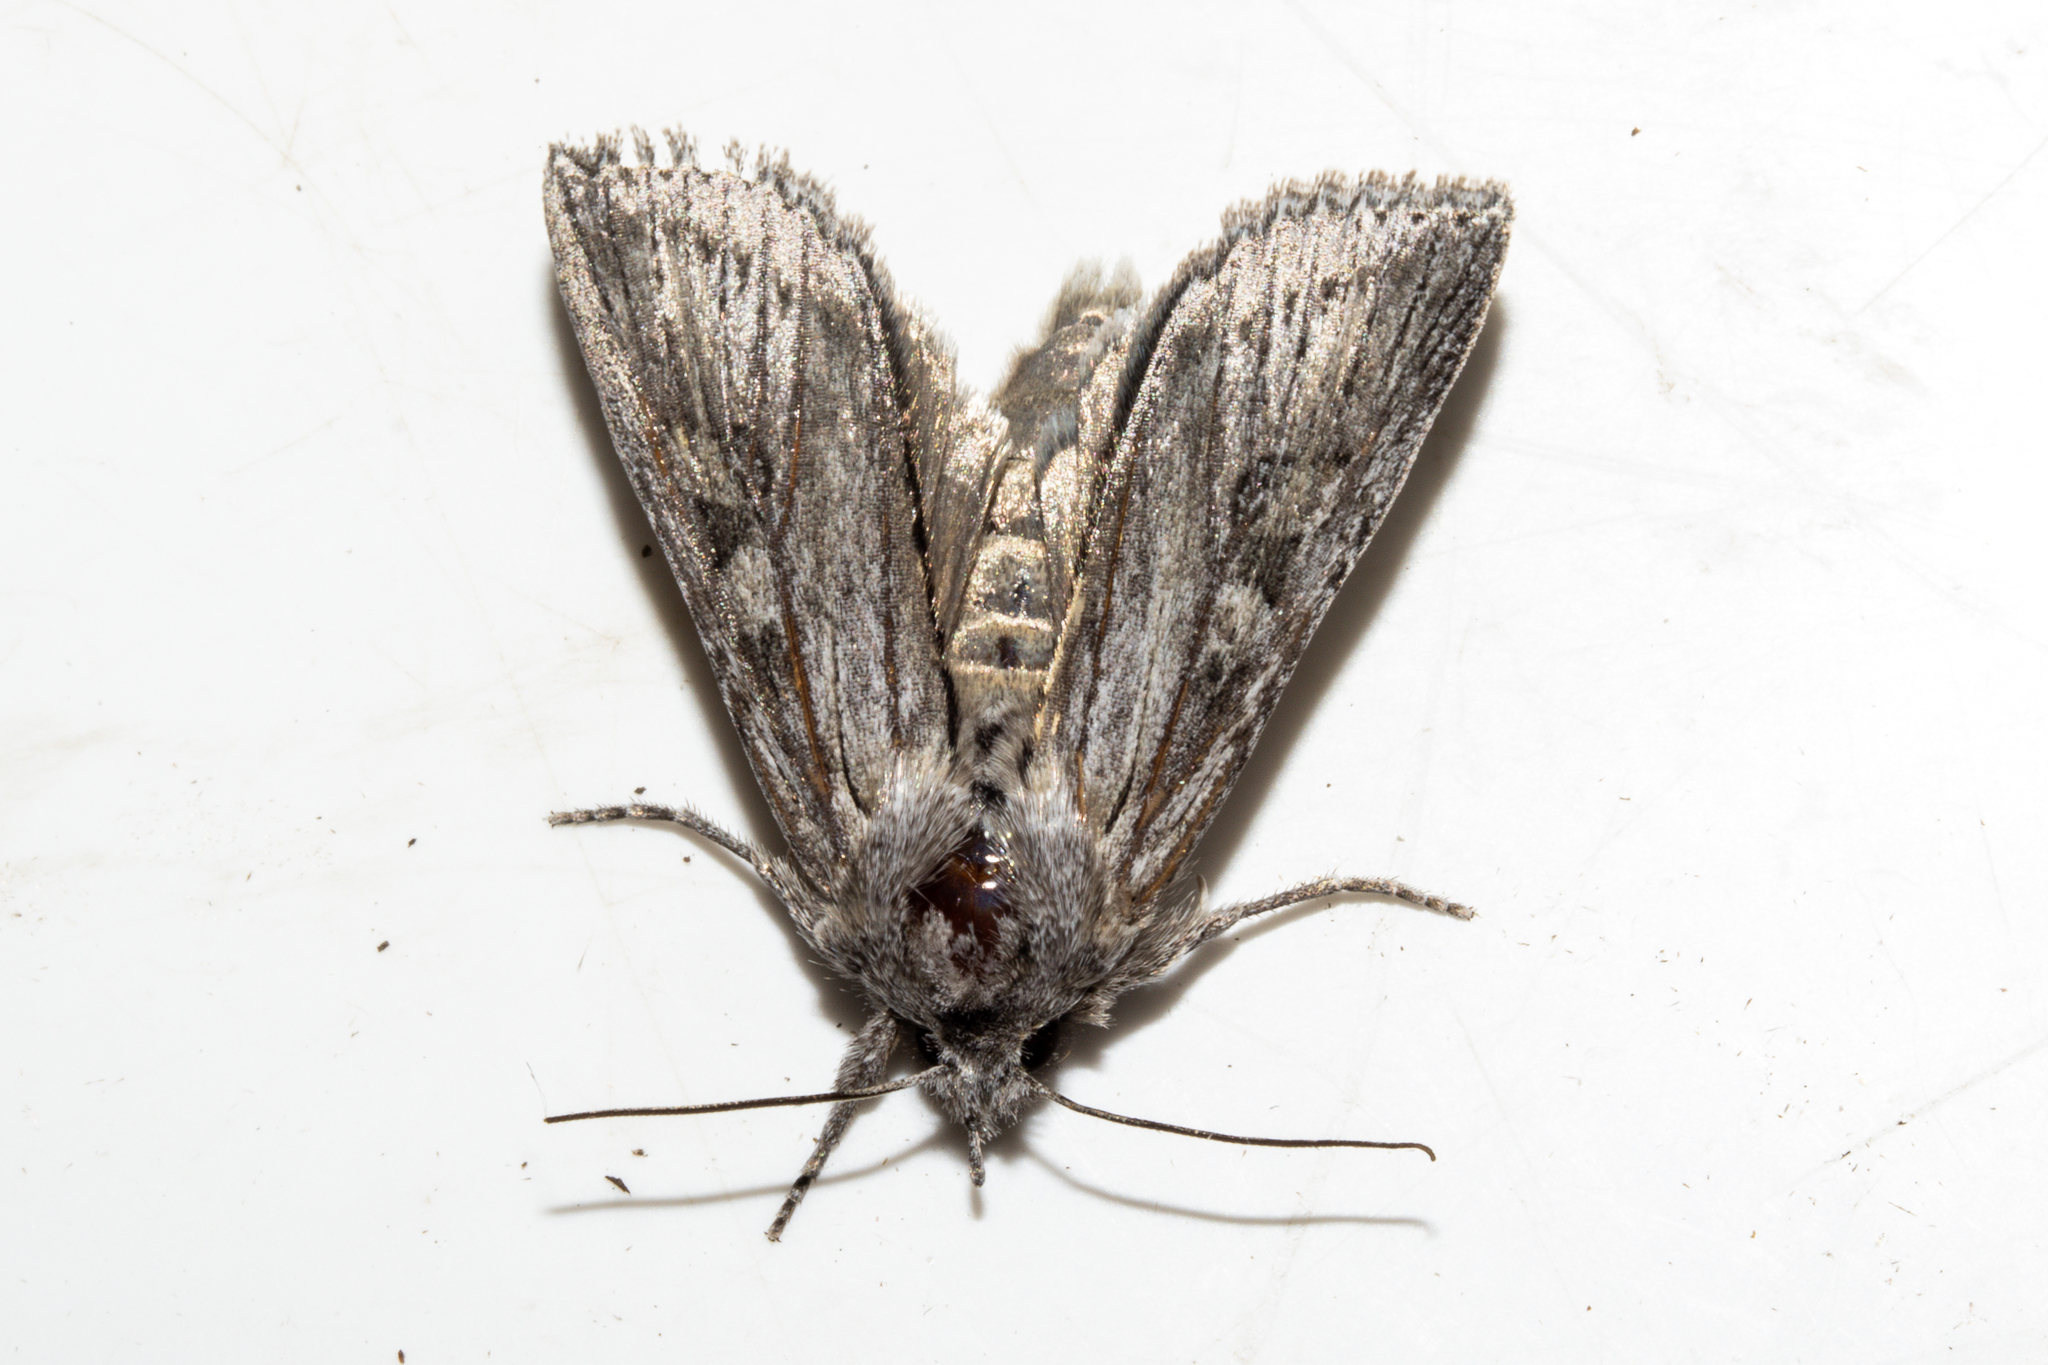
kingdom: Animalia
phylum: Arthropoda
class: Insecta
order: Lepidoptera
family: Noctuidae
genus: Physetica
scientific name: Physetica phricias
